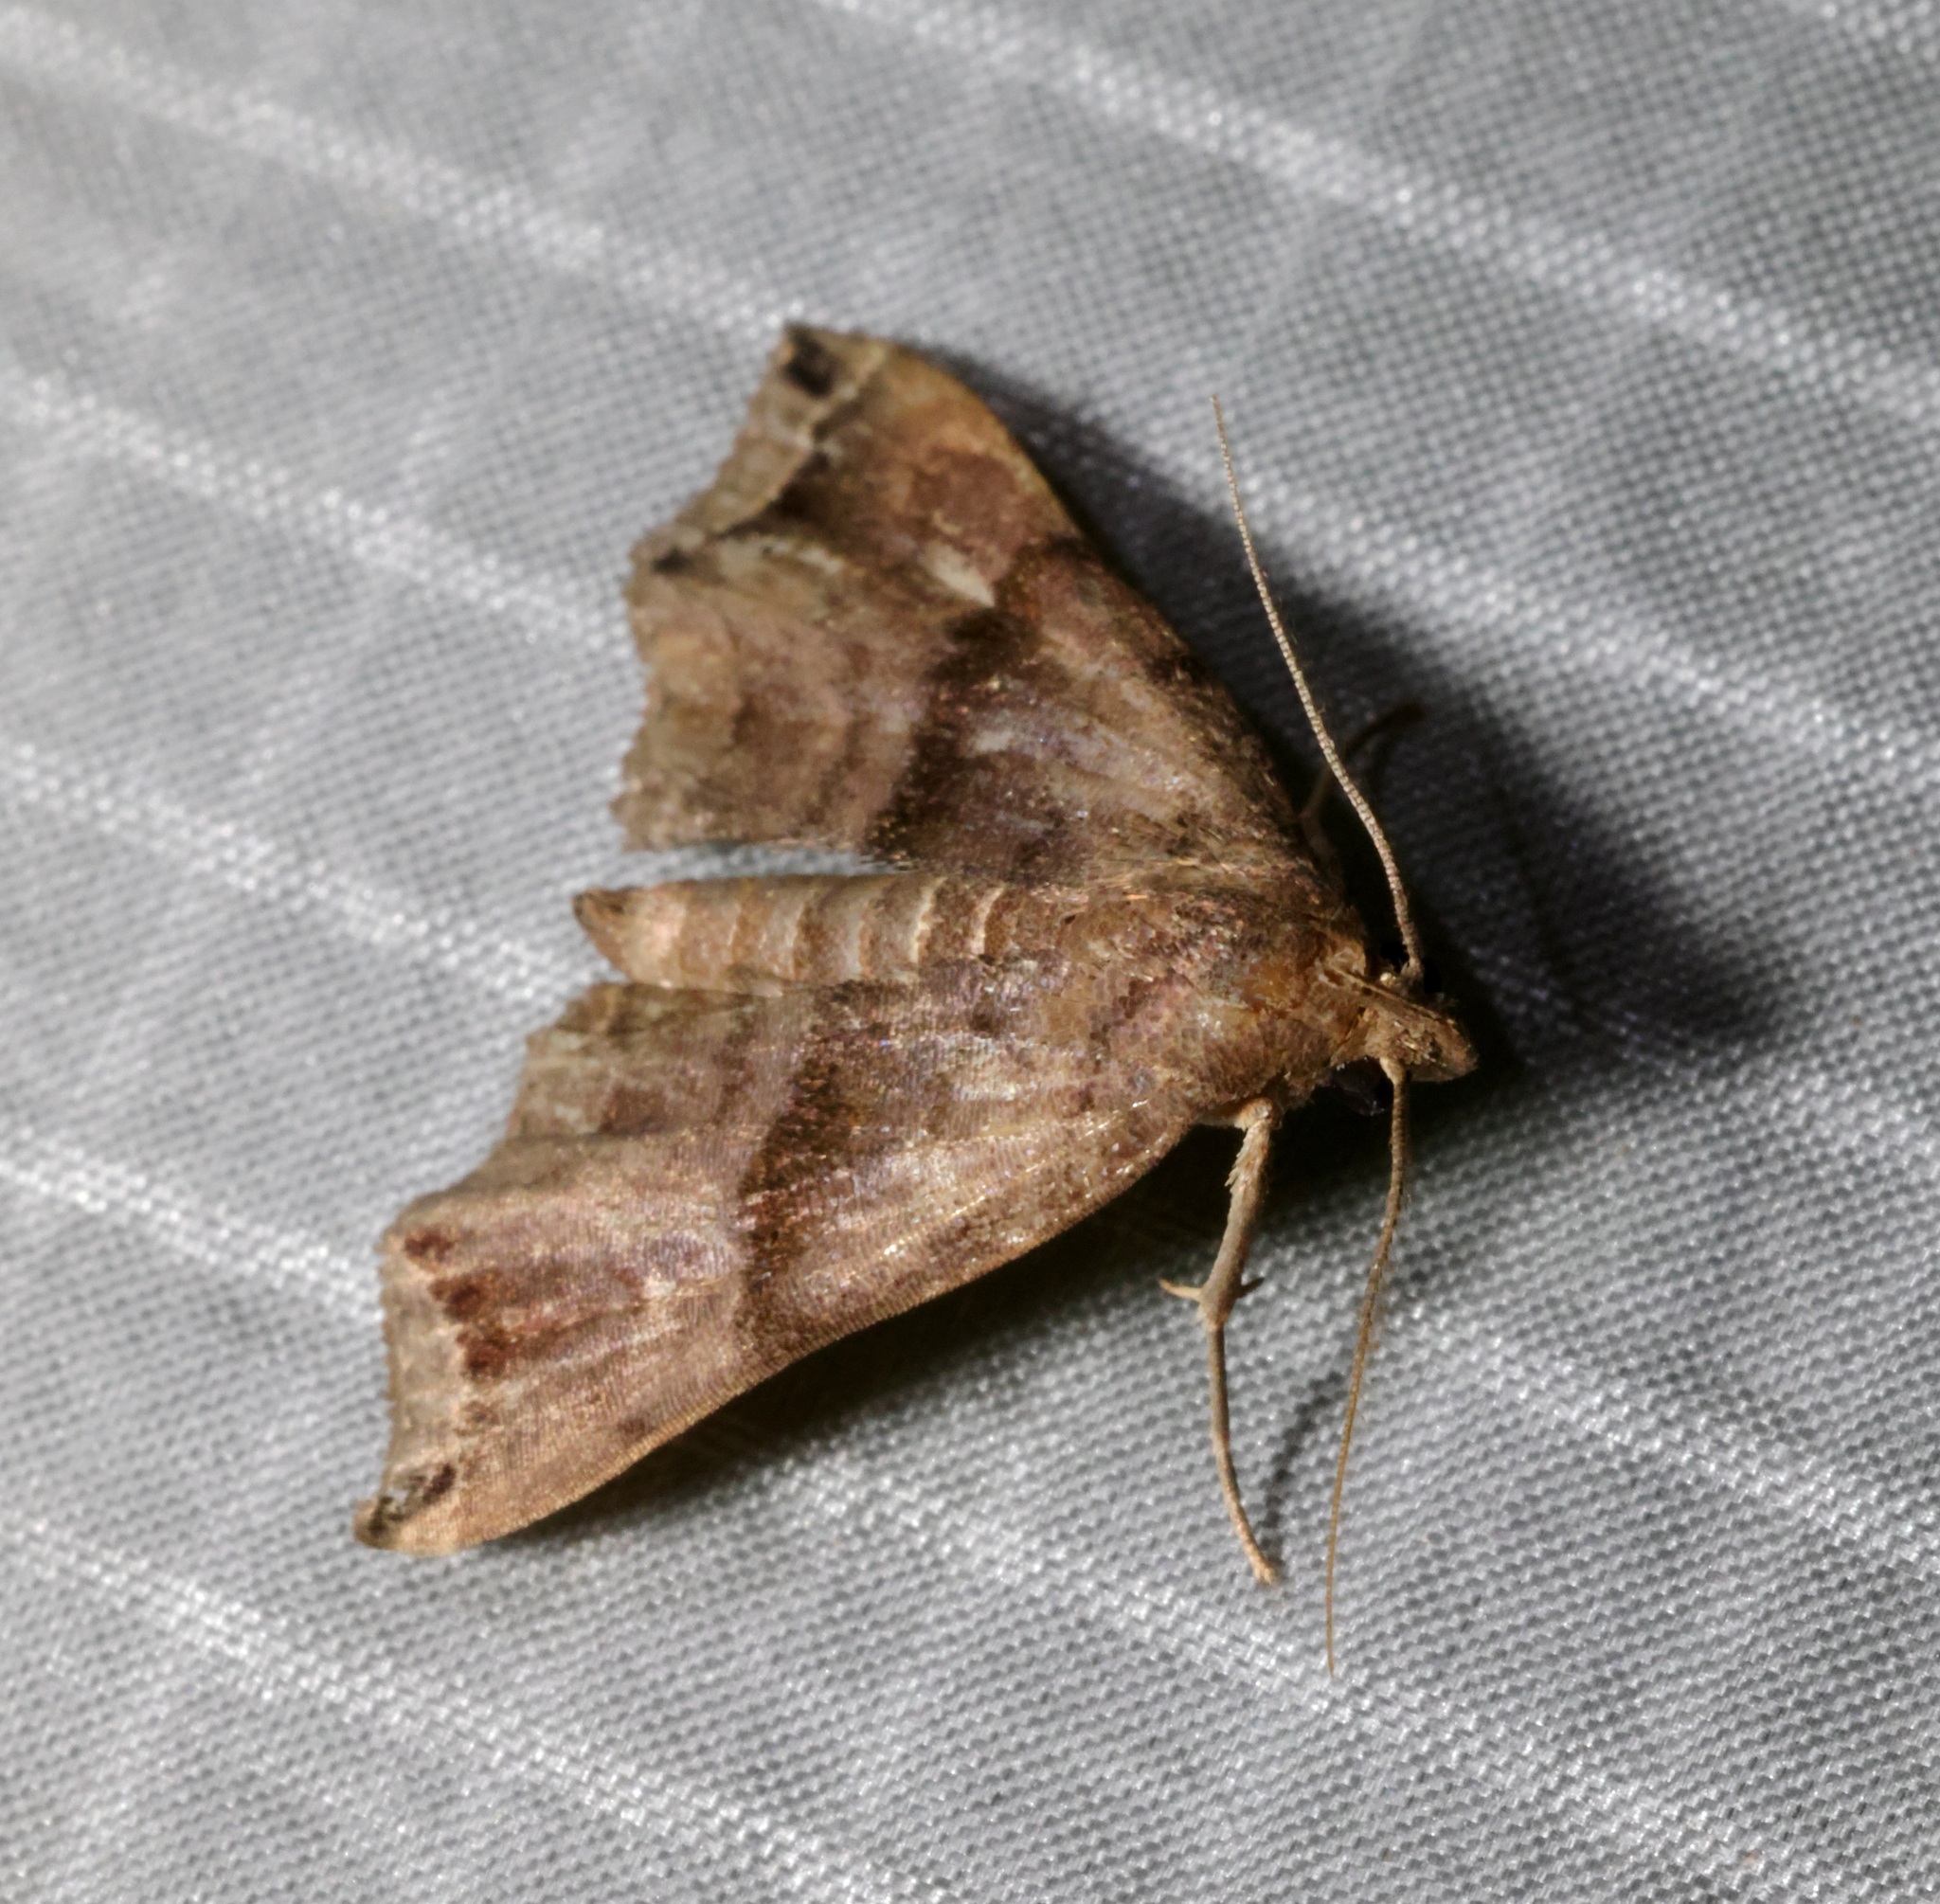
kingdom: Animalia
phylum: Arthropoda
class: Insecta
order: Lepidoptera
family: Erebidae
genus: Polypogon
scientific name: Polypogon Hipoepa fractalis
